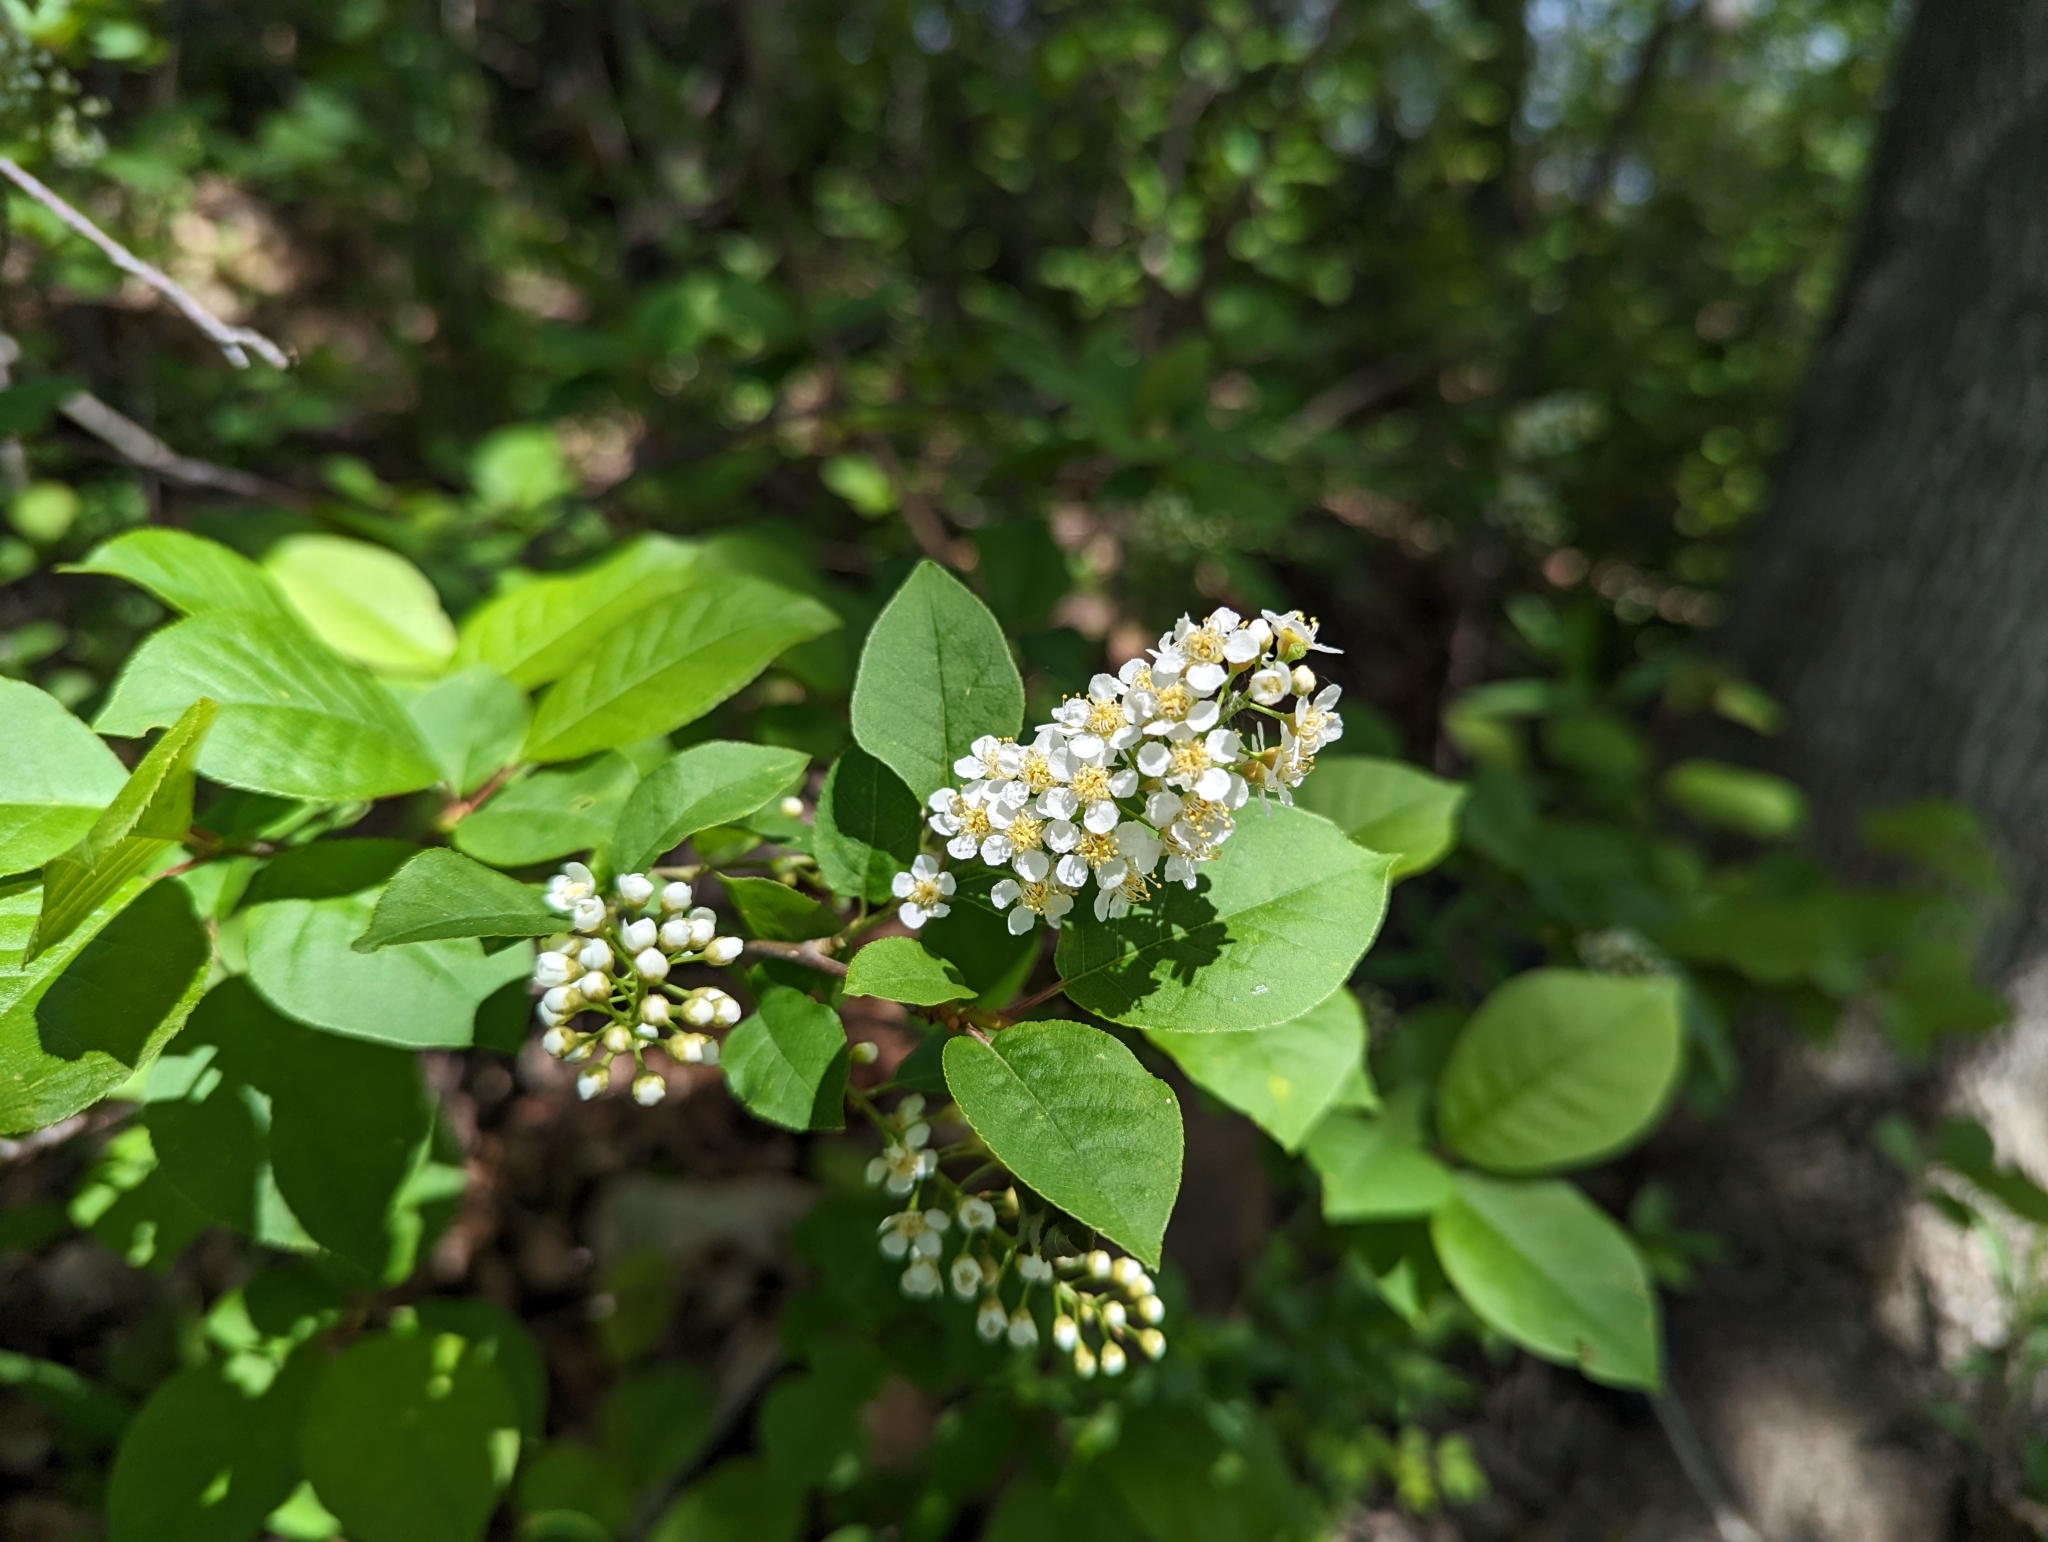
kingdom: Plantae
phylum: Tracheophyta
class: Magnoliopsida
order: Rosales
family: Rosaceae
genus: Prunus
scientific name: Prunus virginiana
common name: Chokecherry
